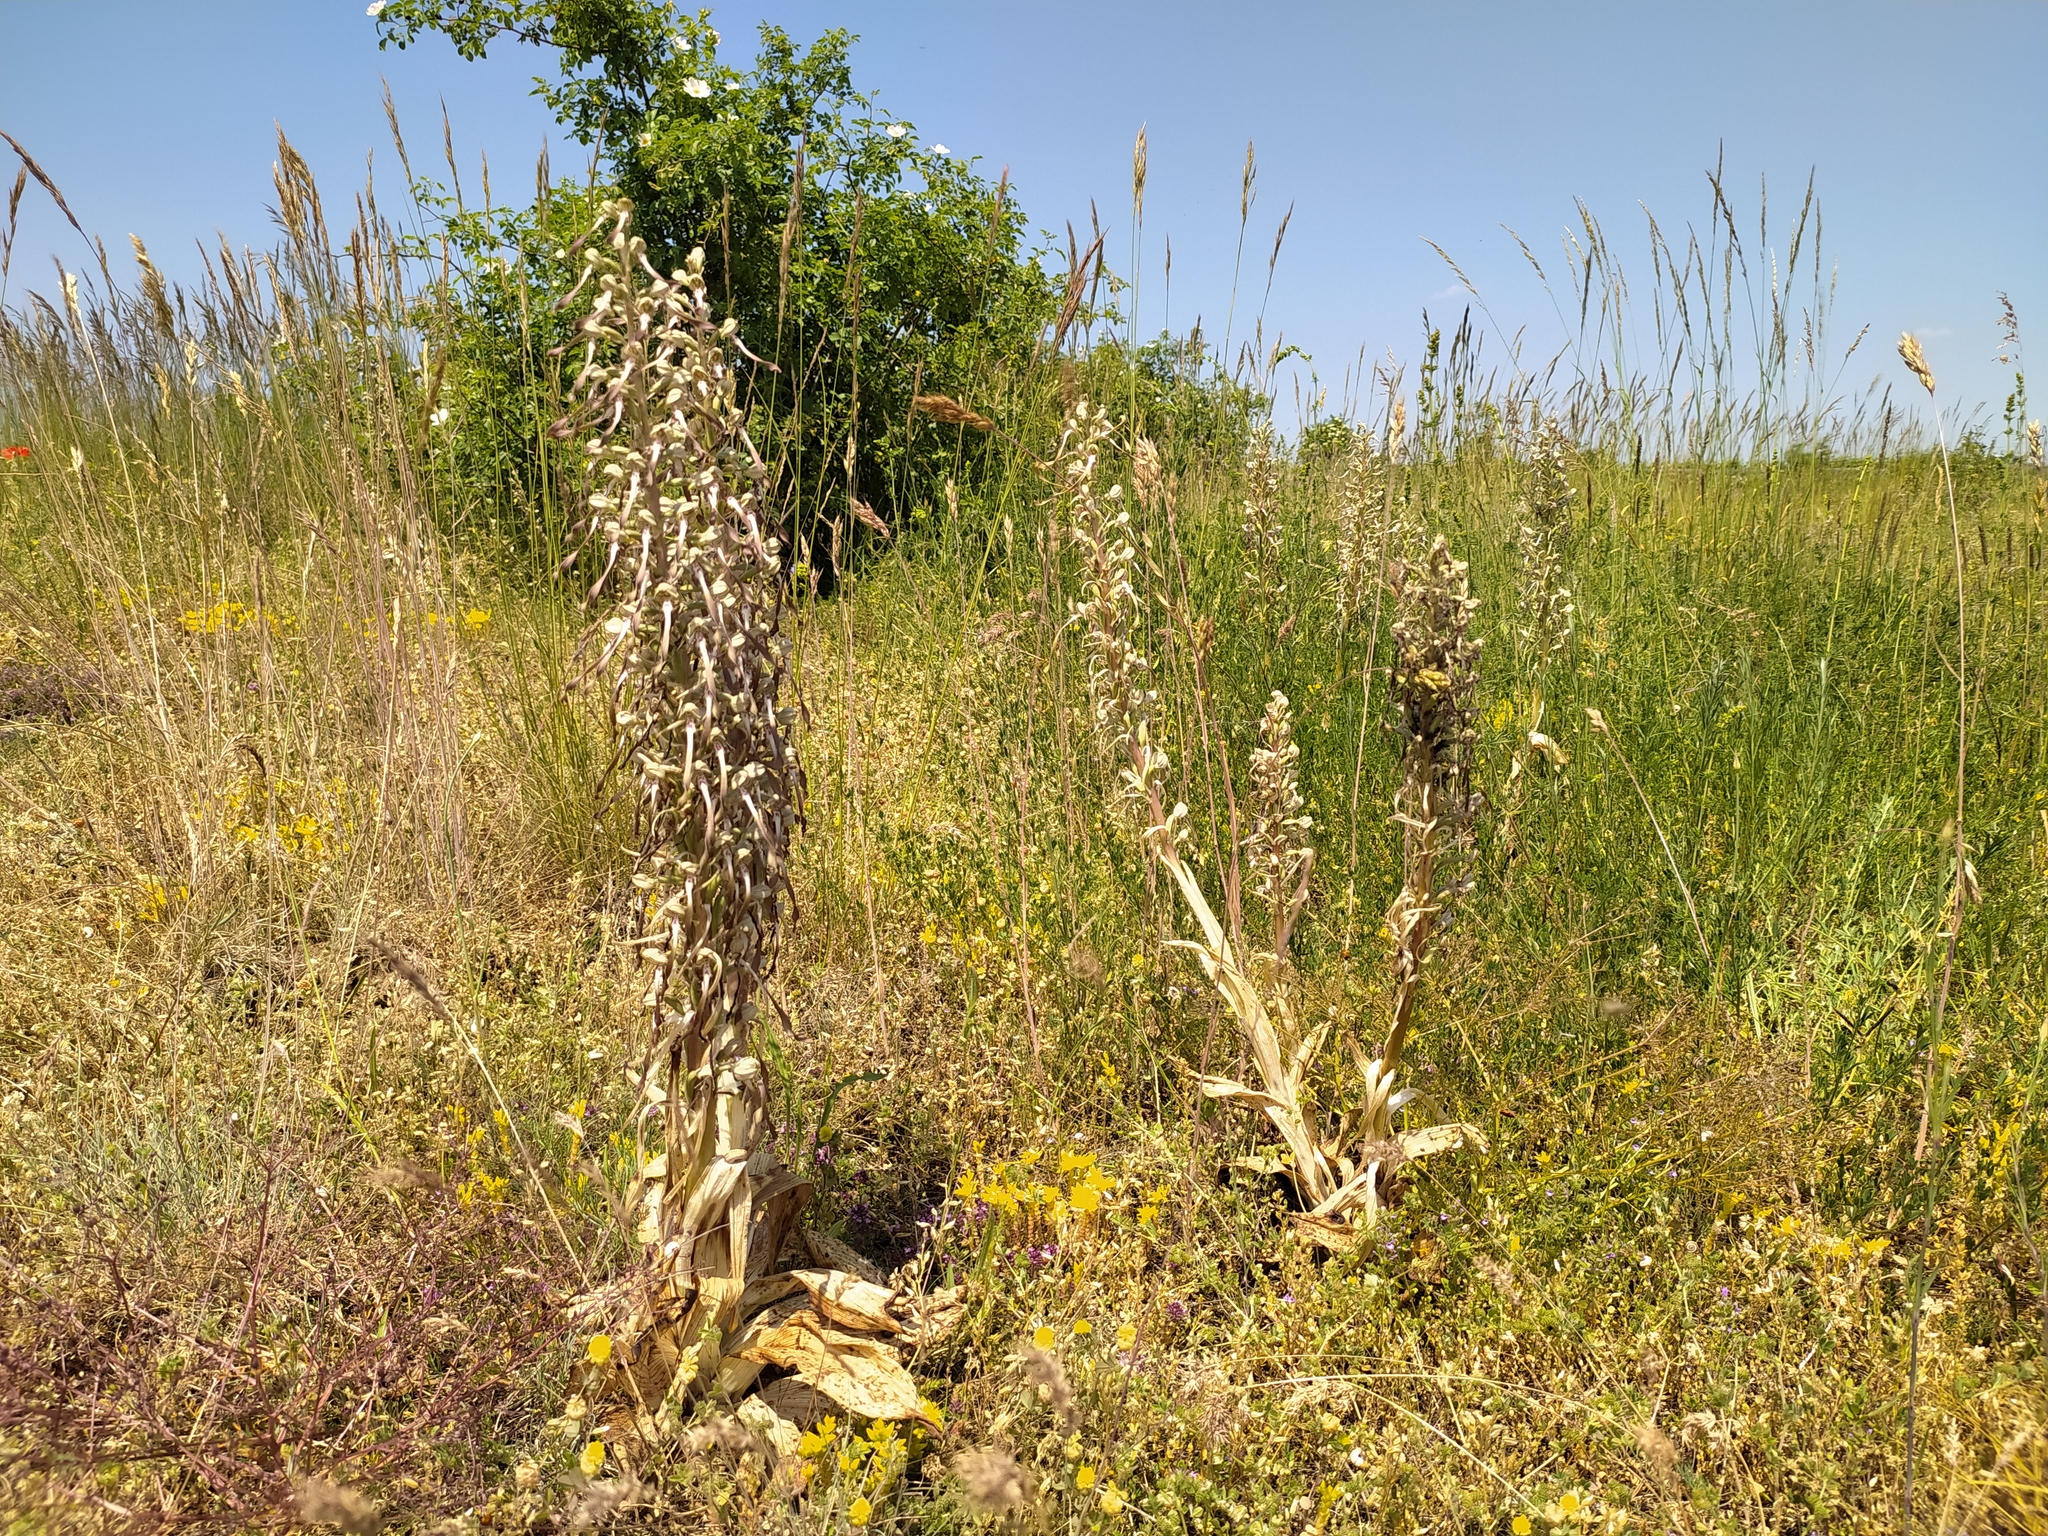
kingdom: Plantae
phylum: Tracheophyta
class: Liliopsida
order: Asparagales
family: Orchidaceae
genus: Himantoglossum
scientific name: Himantoglossum hircinum
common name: Lizard orchid
